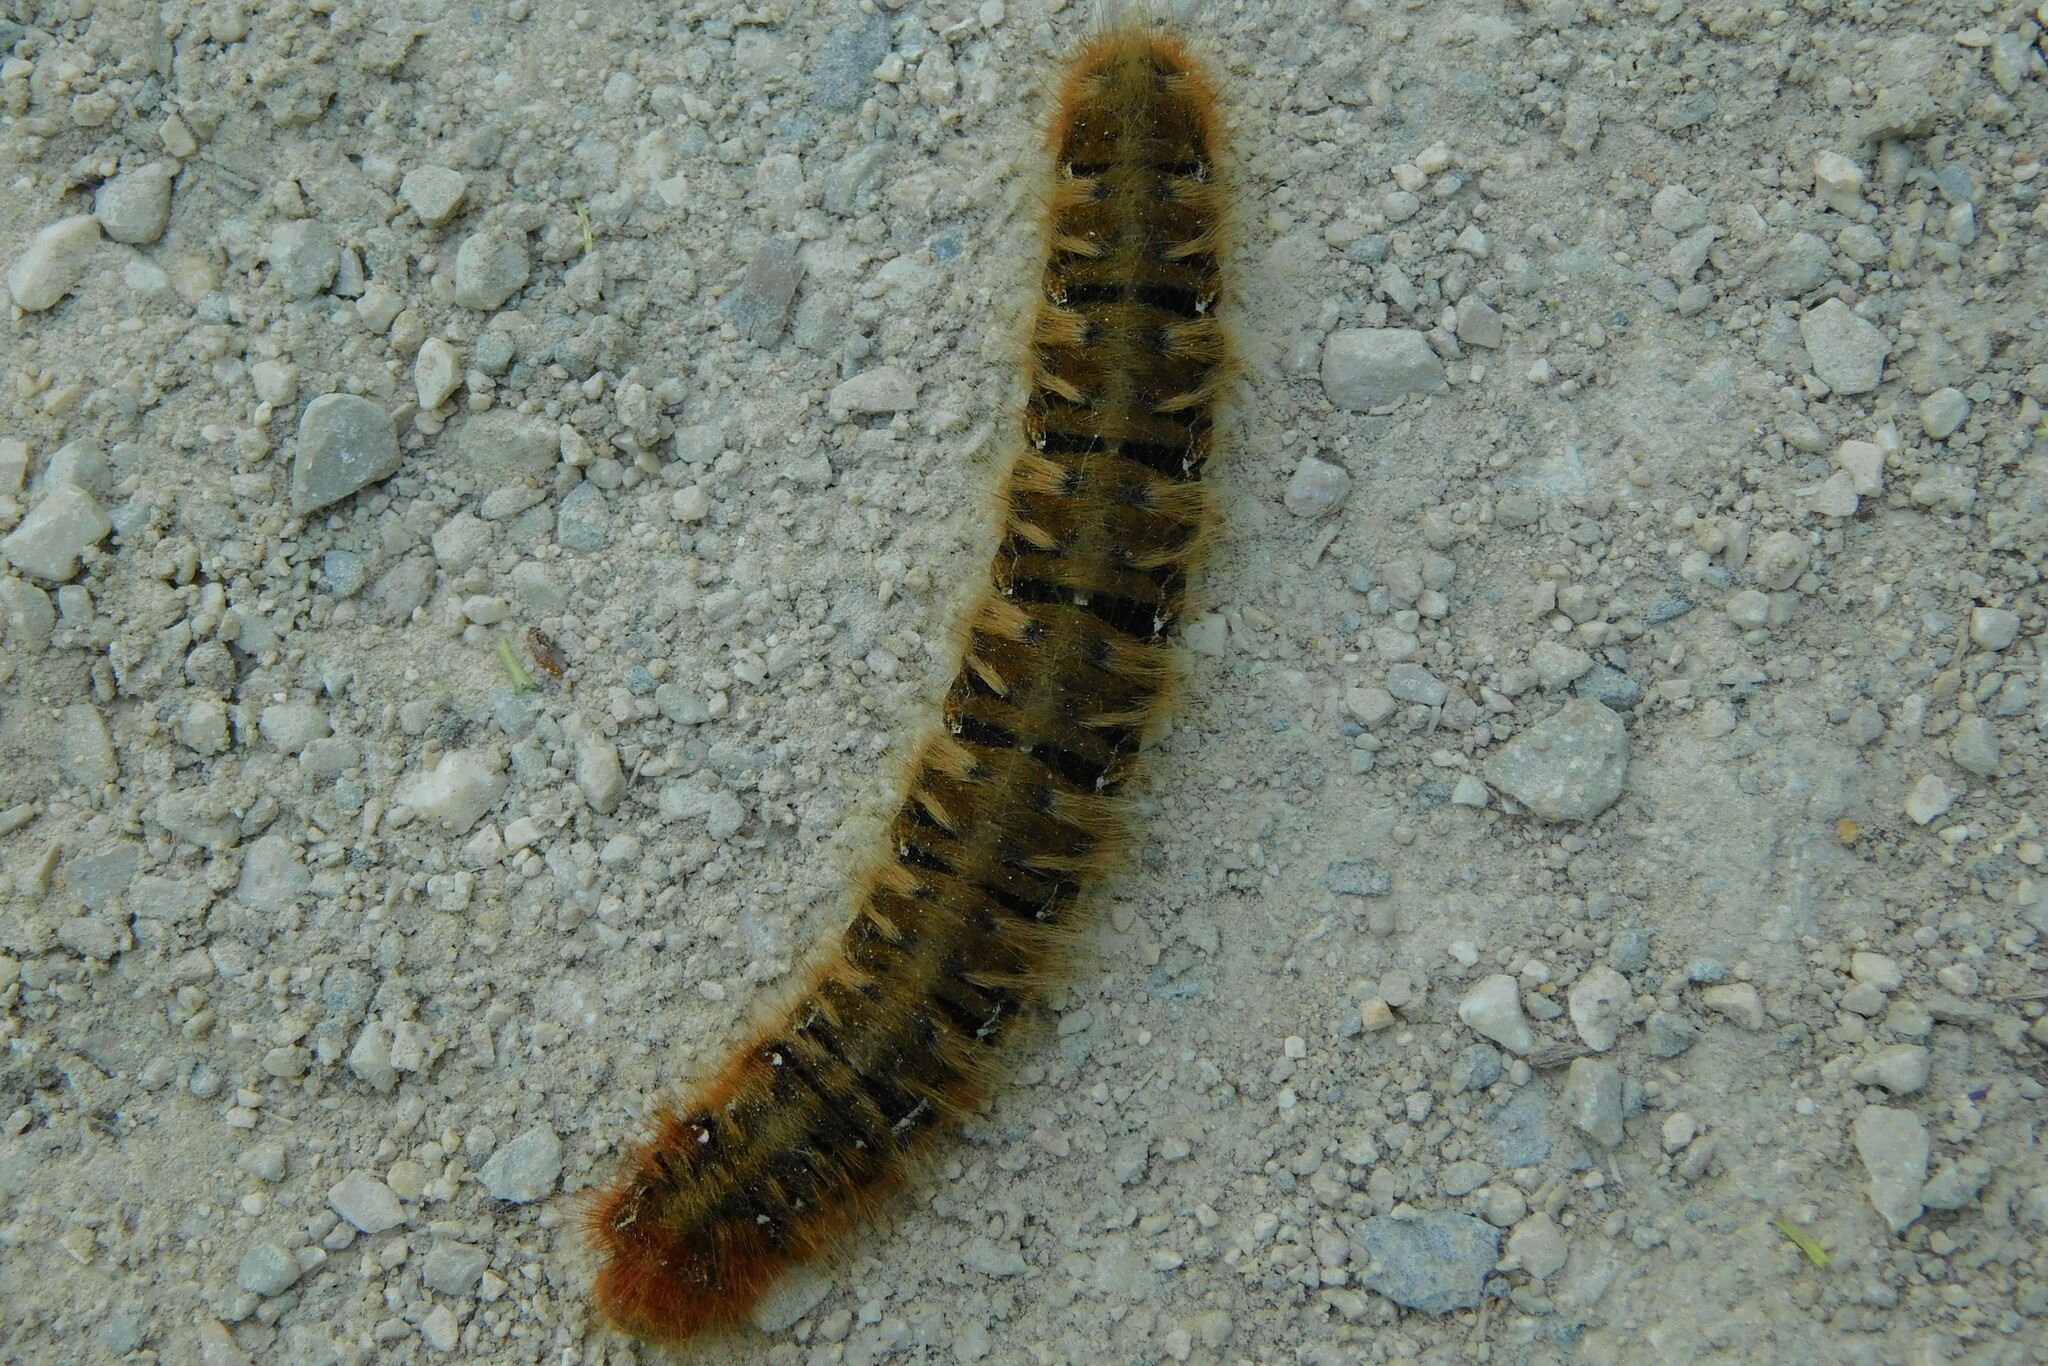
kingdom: Animalia
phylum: Arthropoda
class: Insecta
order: Lepidoptera
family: Lasiocampidae
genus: Lasiocampa
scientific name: Lasiocampa quercus
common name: Oak eggar
